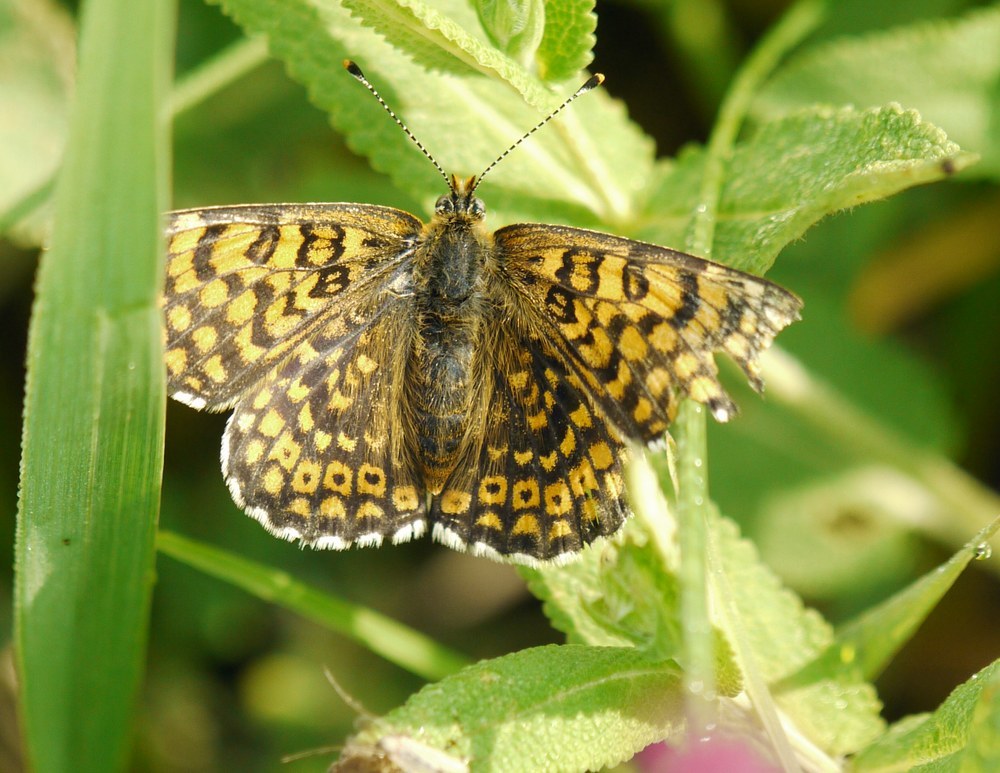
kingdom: Animalia
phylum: Arthropoda
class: Insecta
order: Lepidoptera
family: Nymphalidae
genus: Melitaea
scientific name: Melitaea cinxia
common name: Glanville fritillary
